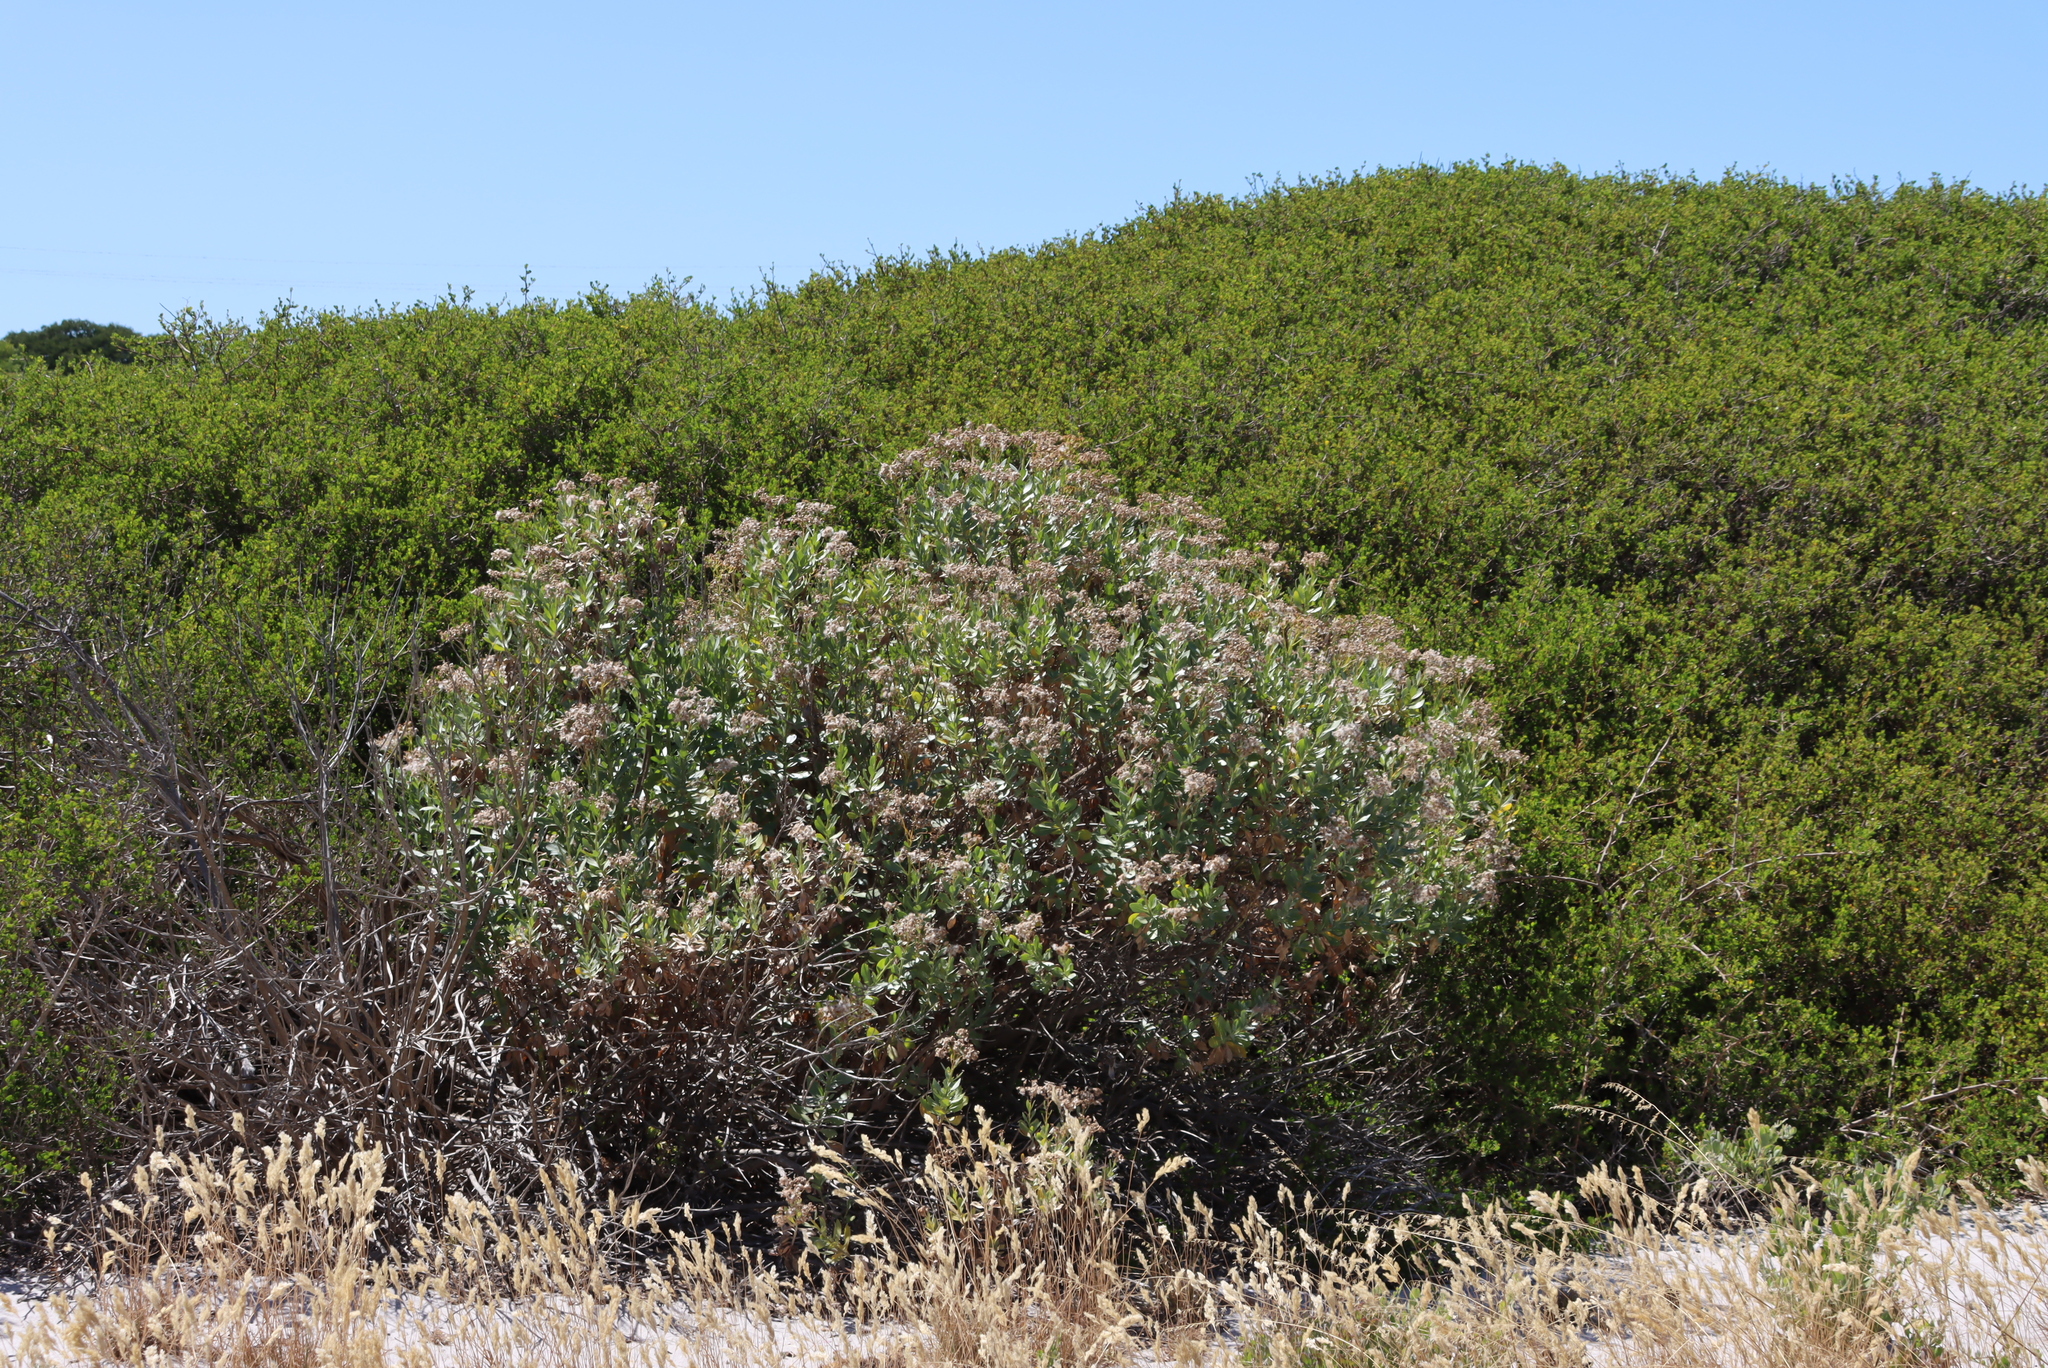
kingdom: Plantae
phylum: Tracheophyta
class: Magnoliopsida
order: Asterales
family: Asteraceae
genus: Senecio
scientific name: Senecio halimifolius
